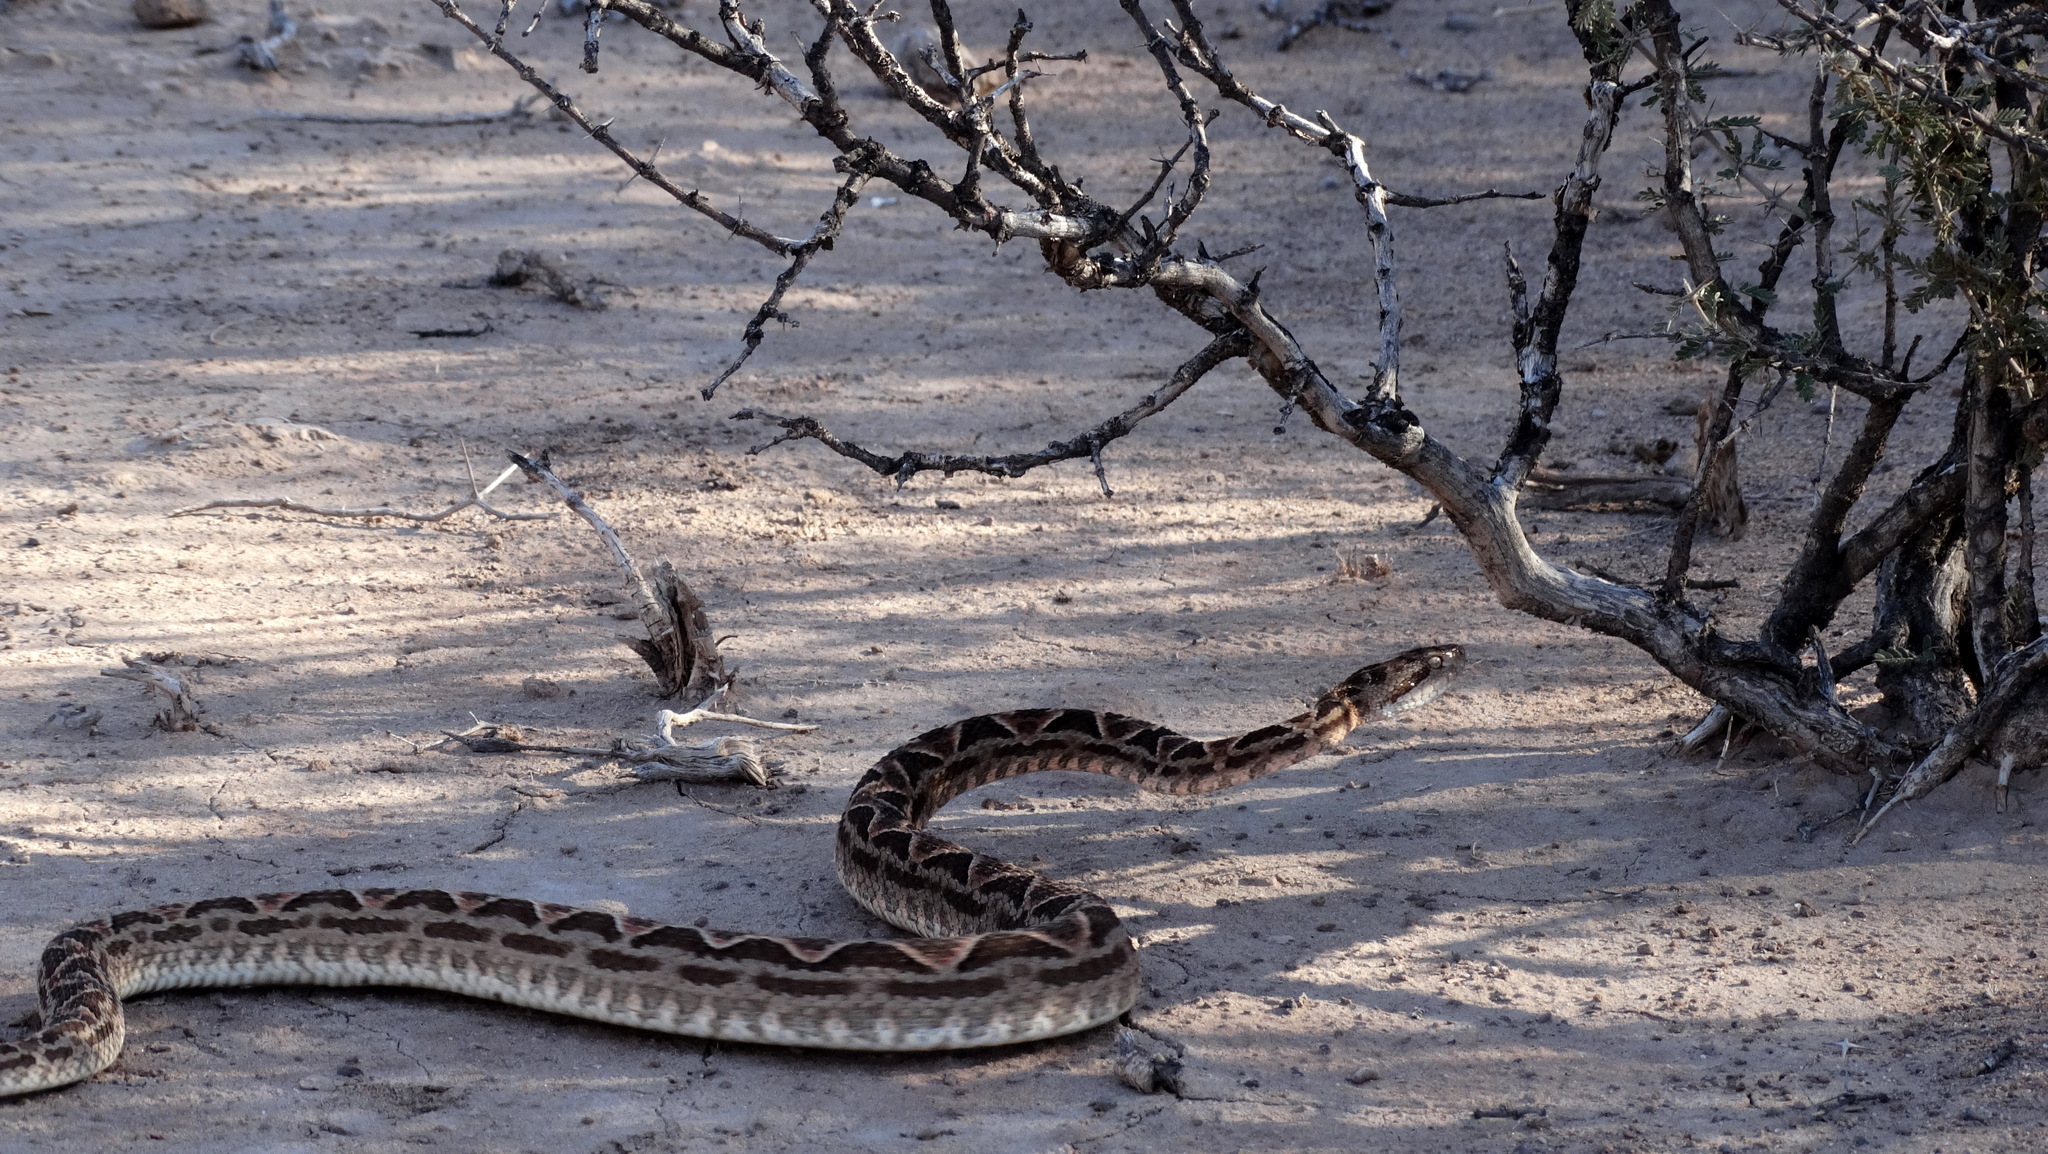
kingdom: Animalia
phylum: Chordata
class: Squamata
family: Viperidae
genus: Bothrops
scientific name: Bothrops diporus
